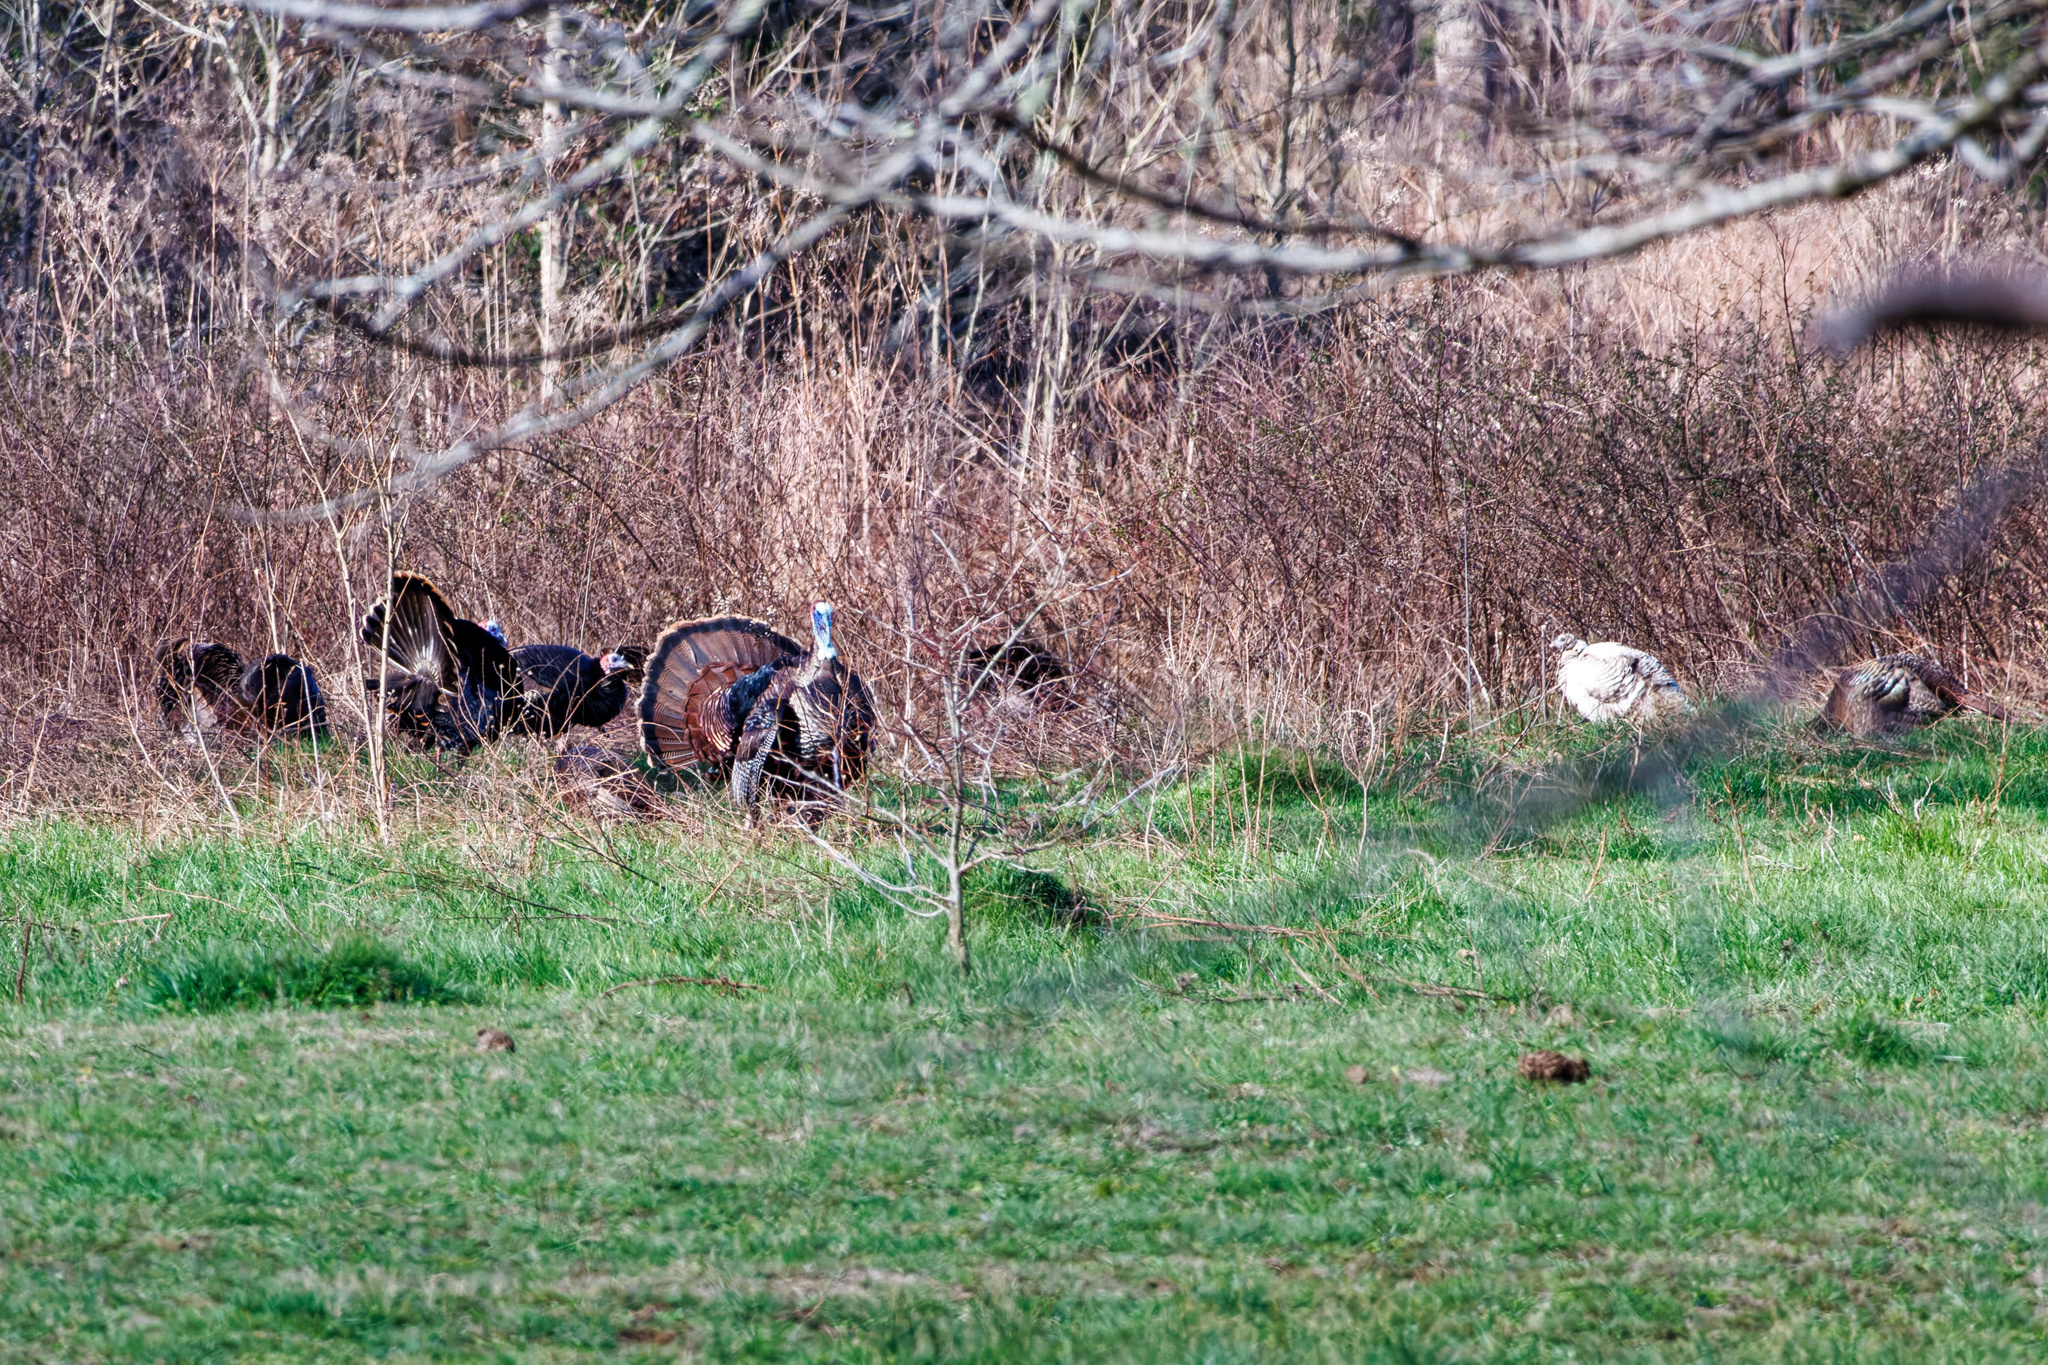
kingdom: Animalia
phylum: Chordata
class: Aves
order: Galliformes
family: Phasianidae
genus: Meleagris
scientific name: Meleagris gallopavo
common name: Wild turkey
